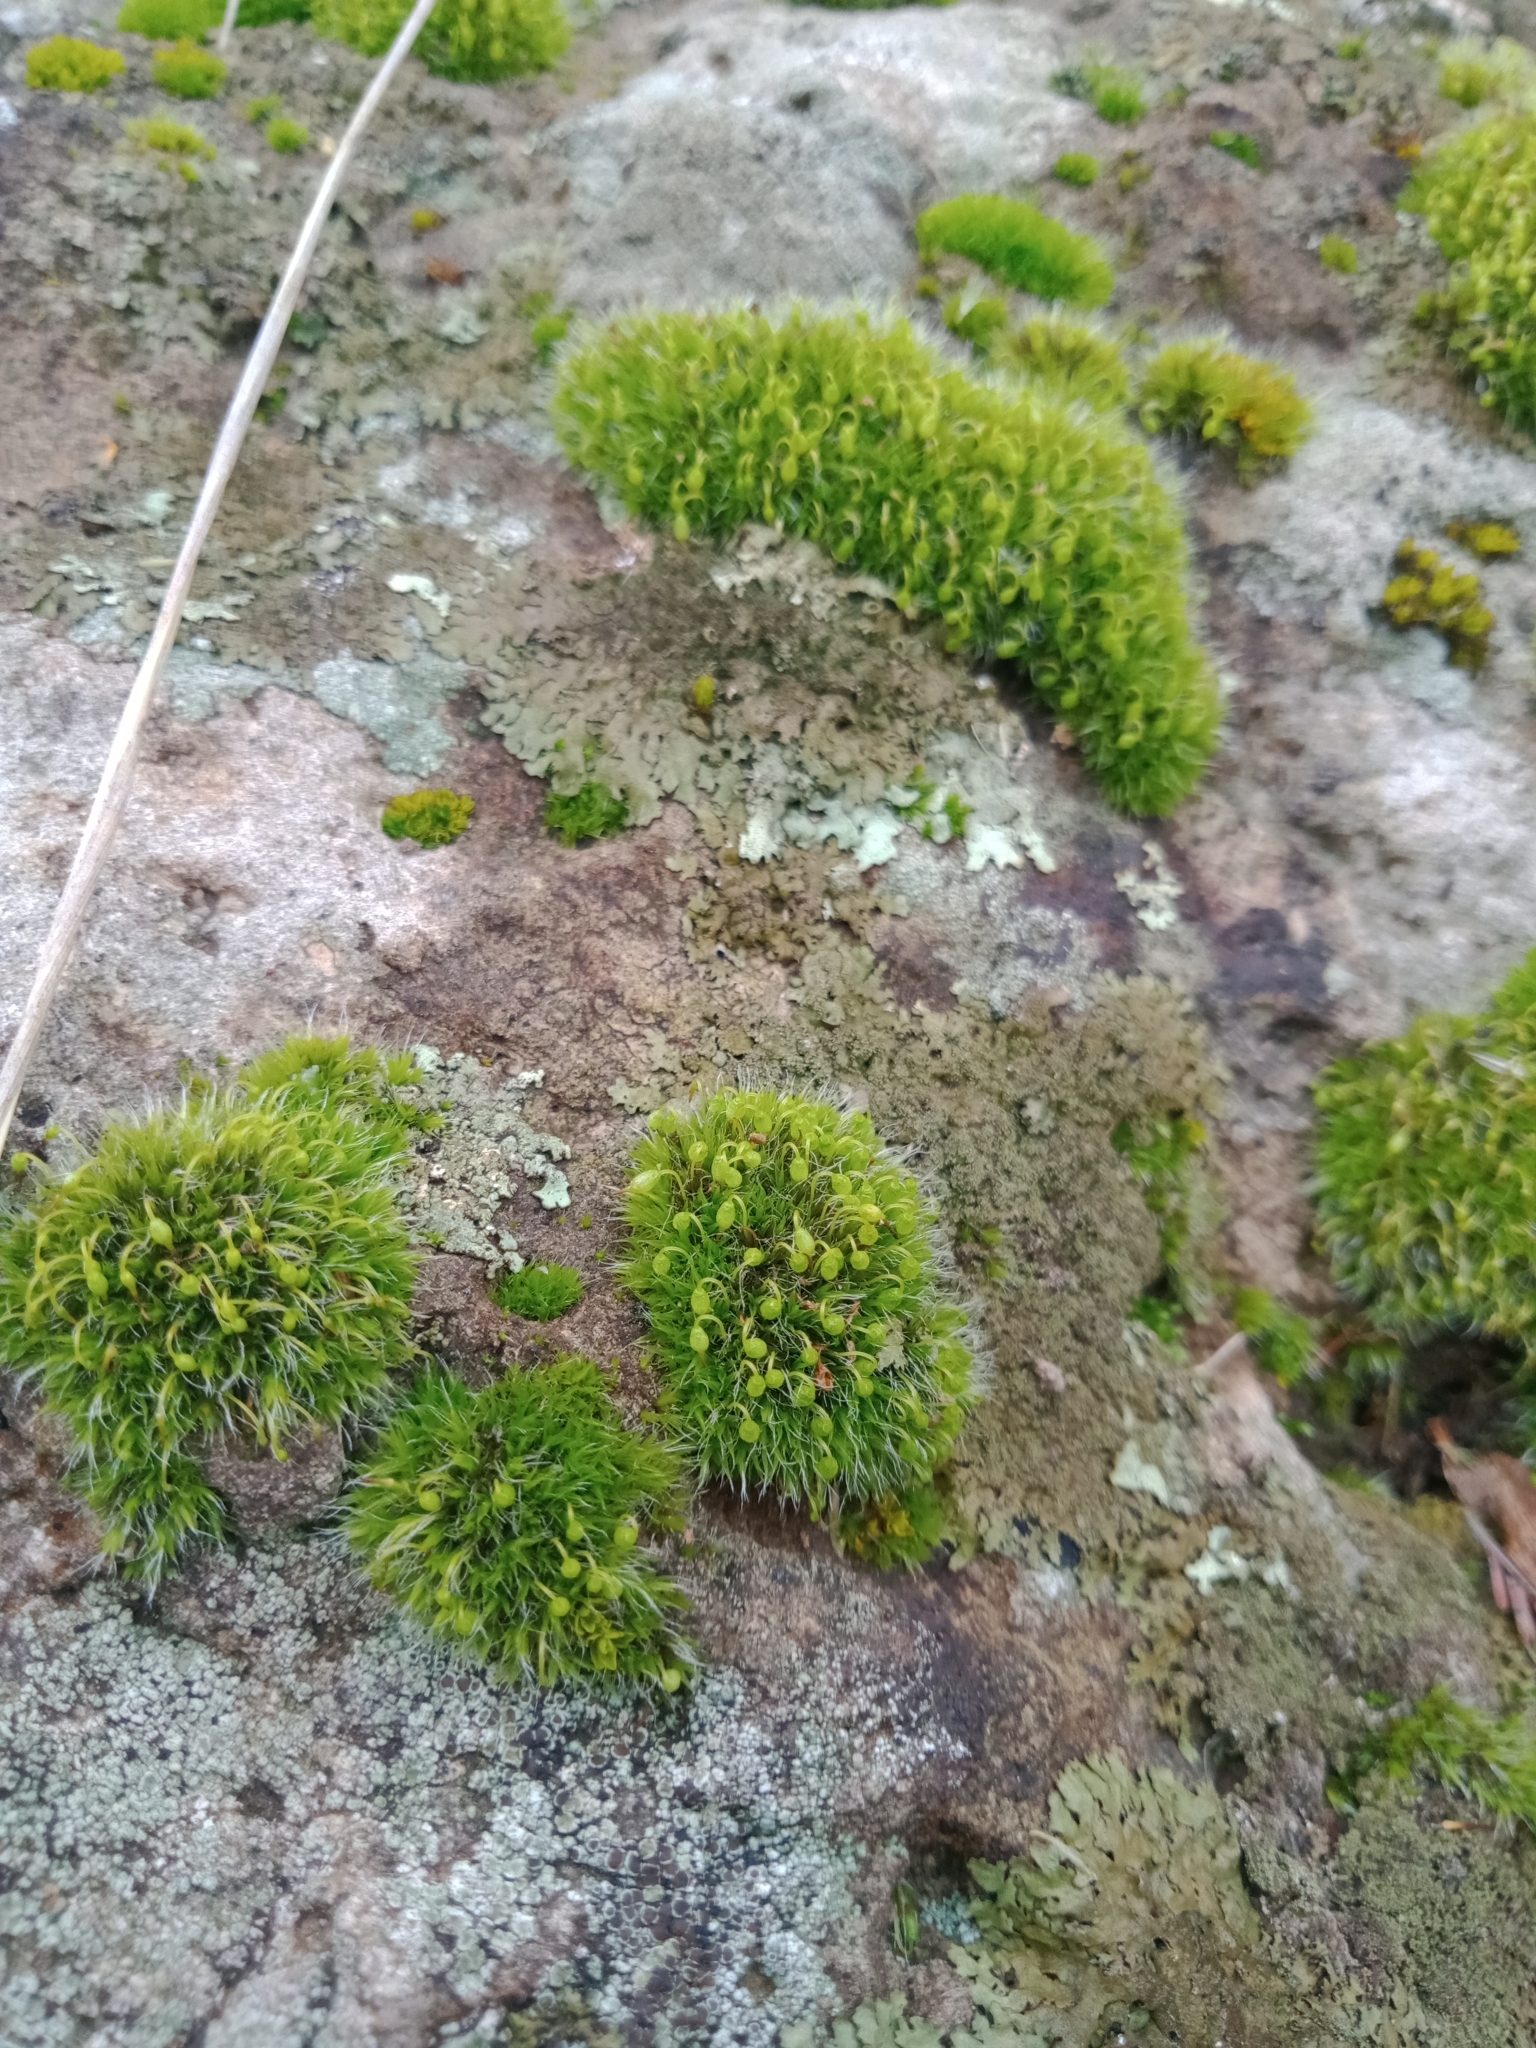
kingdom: Plantae
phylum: Bryophyta
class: Bryopsida
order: Grimmiales
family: Grimmiaceae
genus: Grimmia
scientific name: Grimmia pulvinata
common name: Grey-cushioned grimmia
